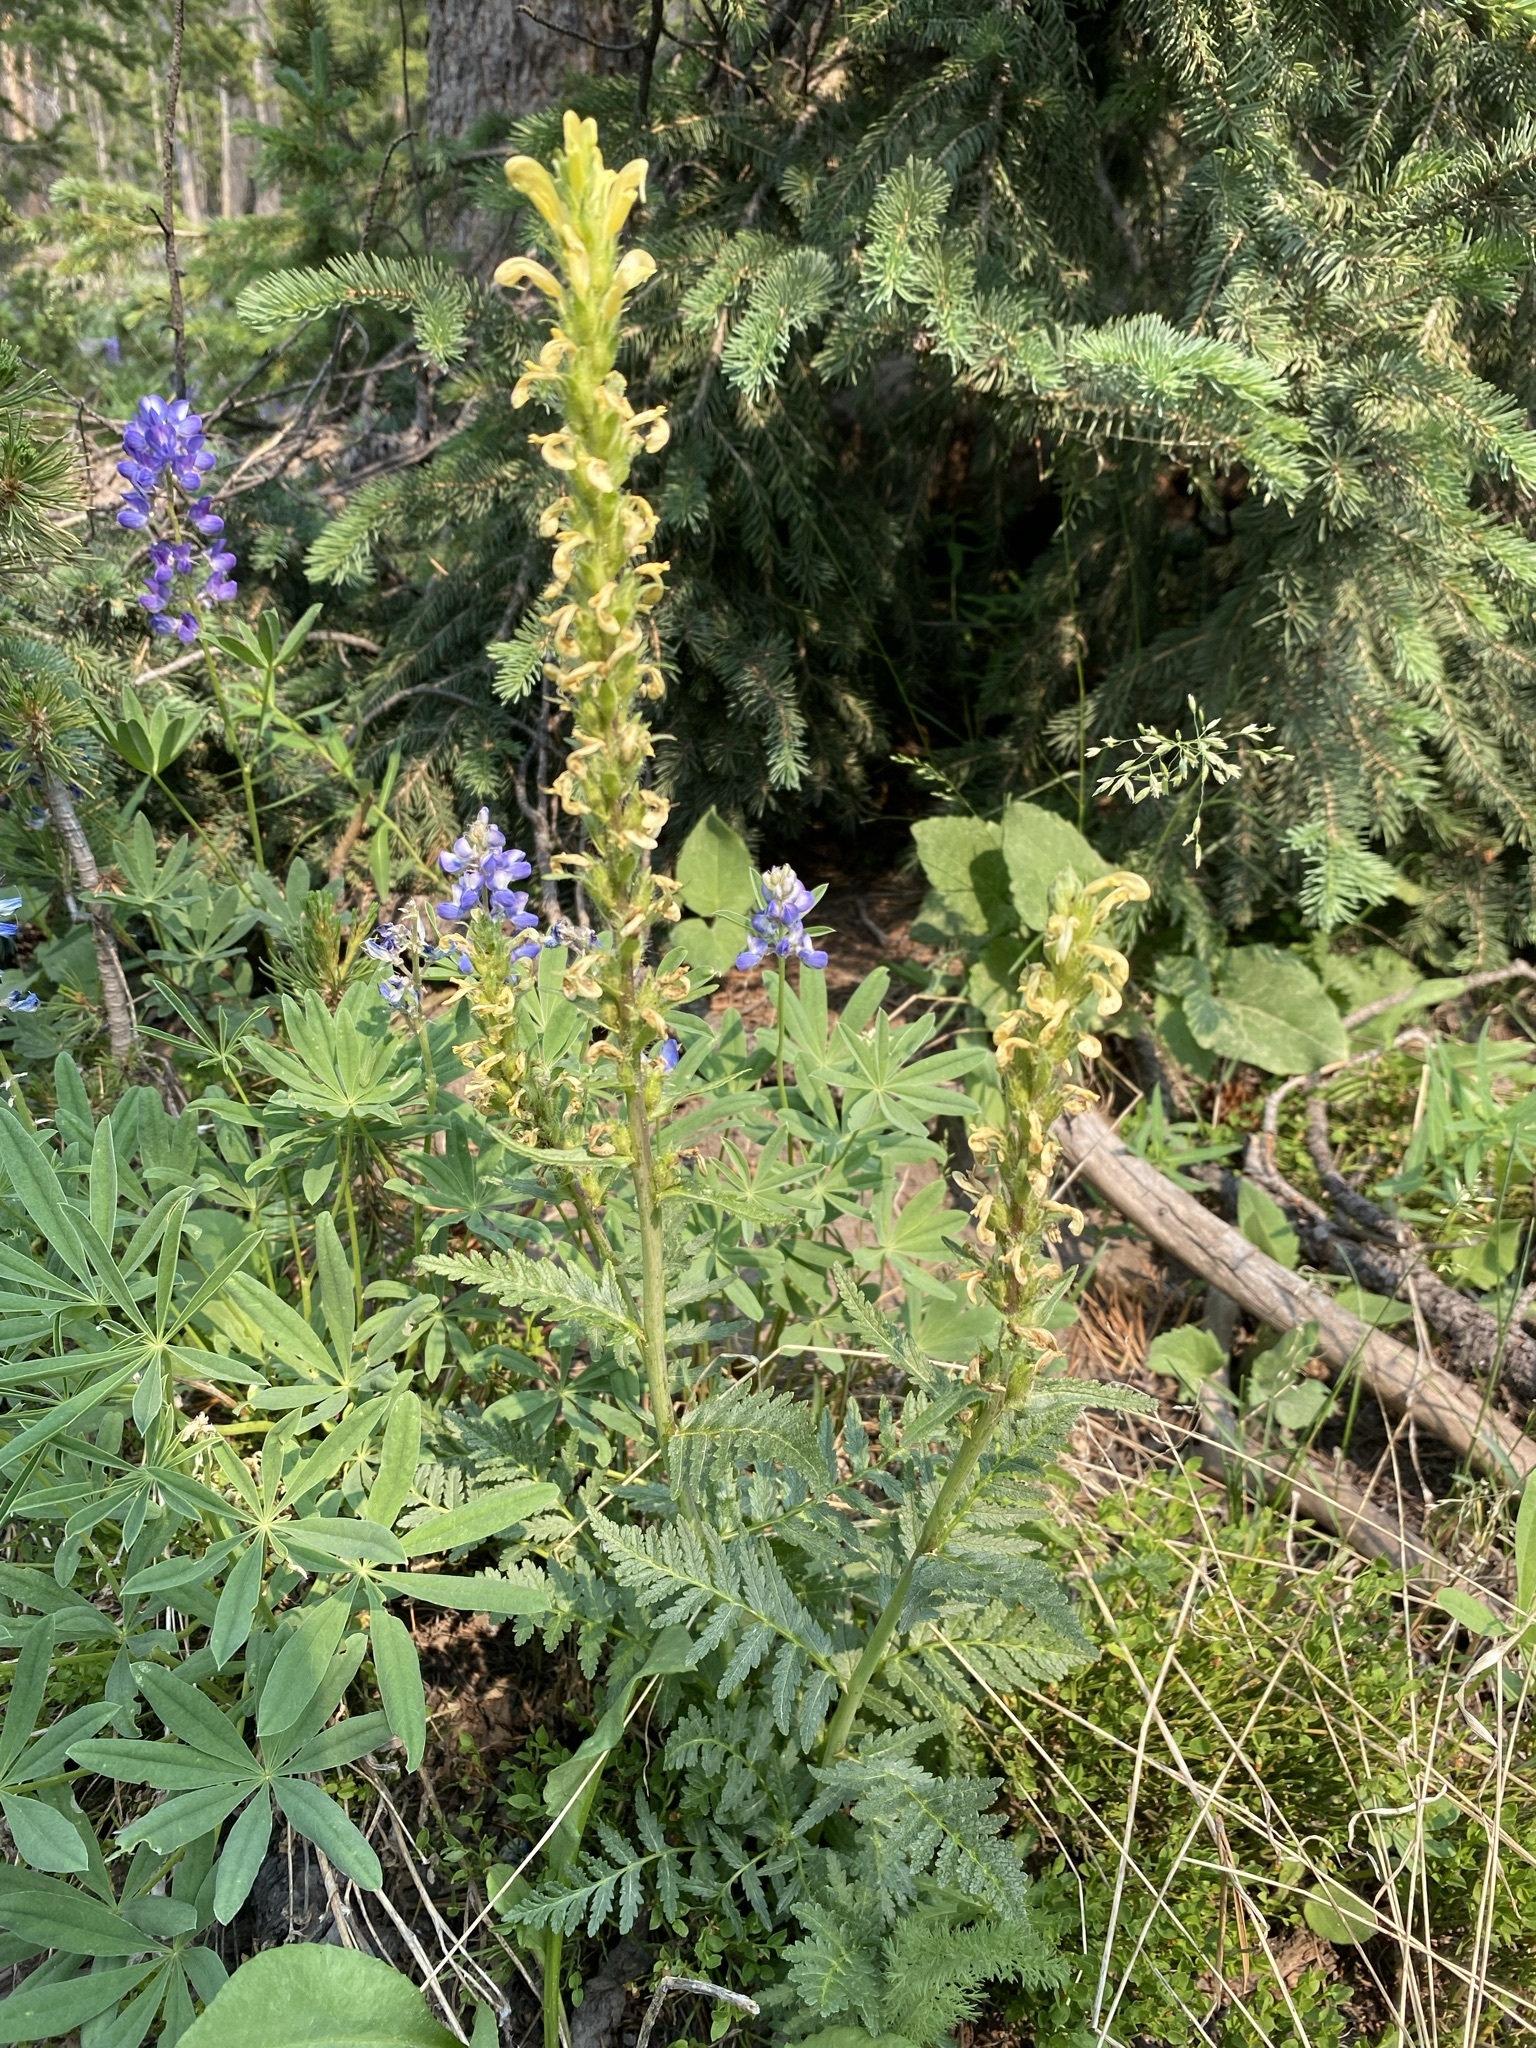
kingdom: Plantae
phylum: Tracheophyta
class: Magnoliopsida
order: Lamiales
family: Orobanchaceae
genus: Pedicularis
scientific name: Pedicularis bracteosa
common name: Bracted lousewort
